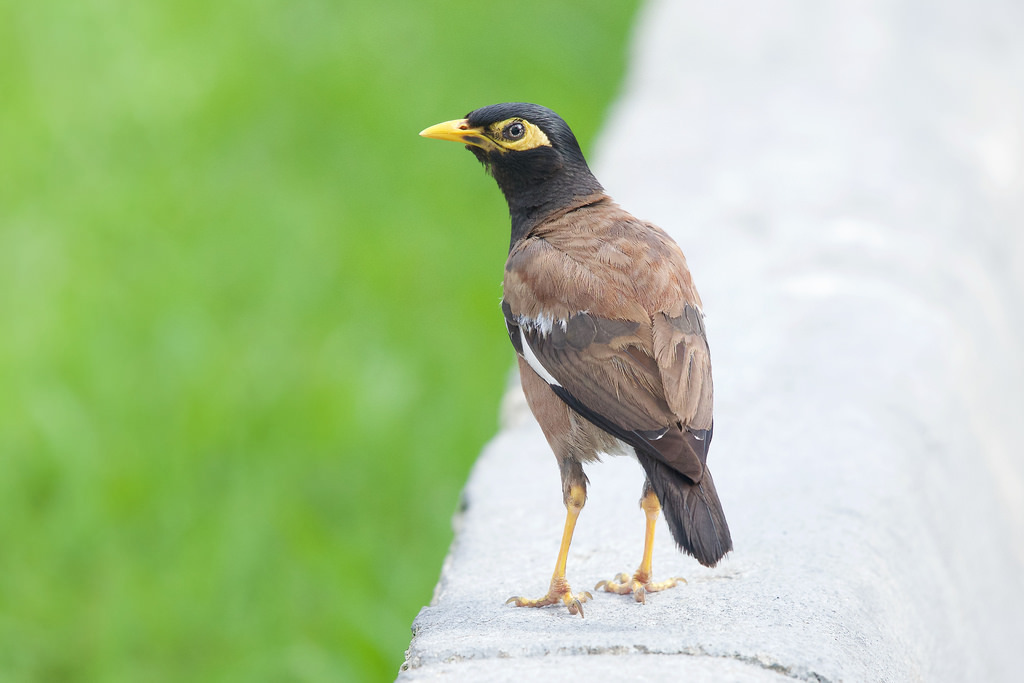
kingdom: Animalia
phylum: Chordata
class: Aves
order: Passeriformes
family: Sturnidae
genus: Acridotheres
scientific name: Acridotheres tristis
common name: Common myna
